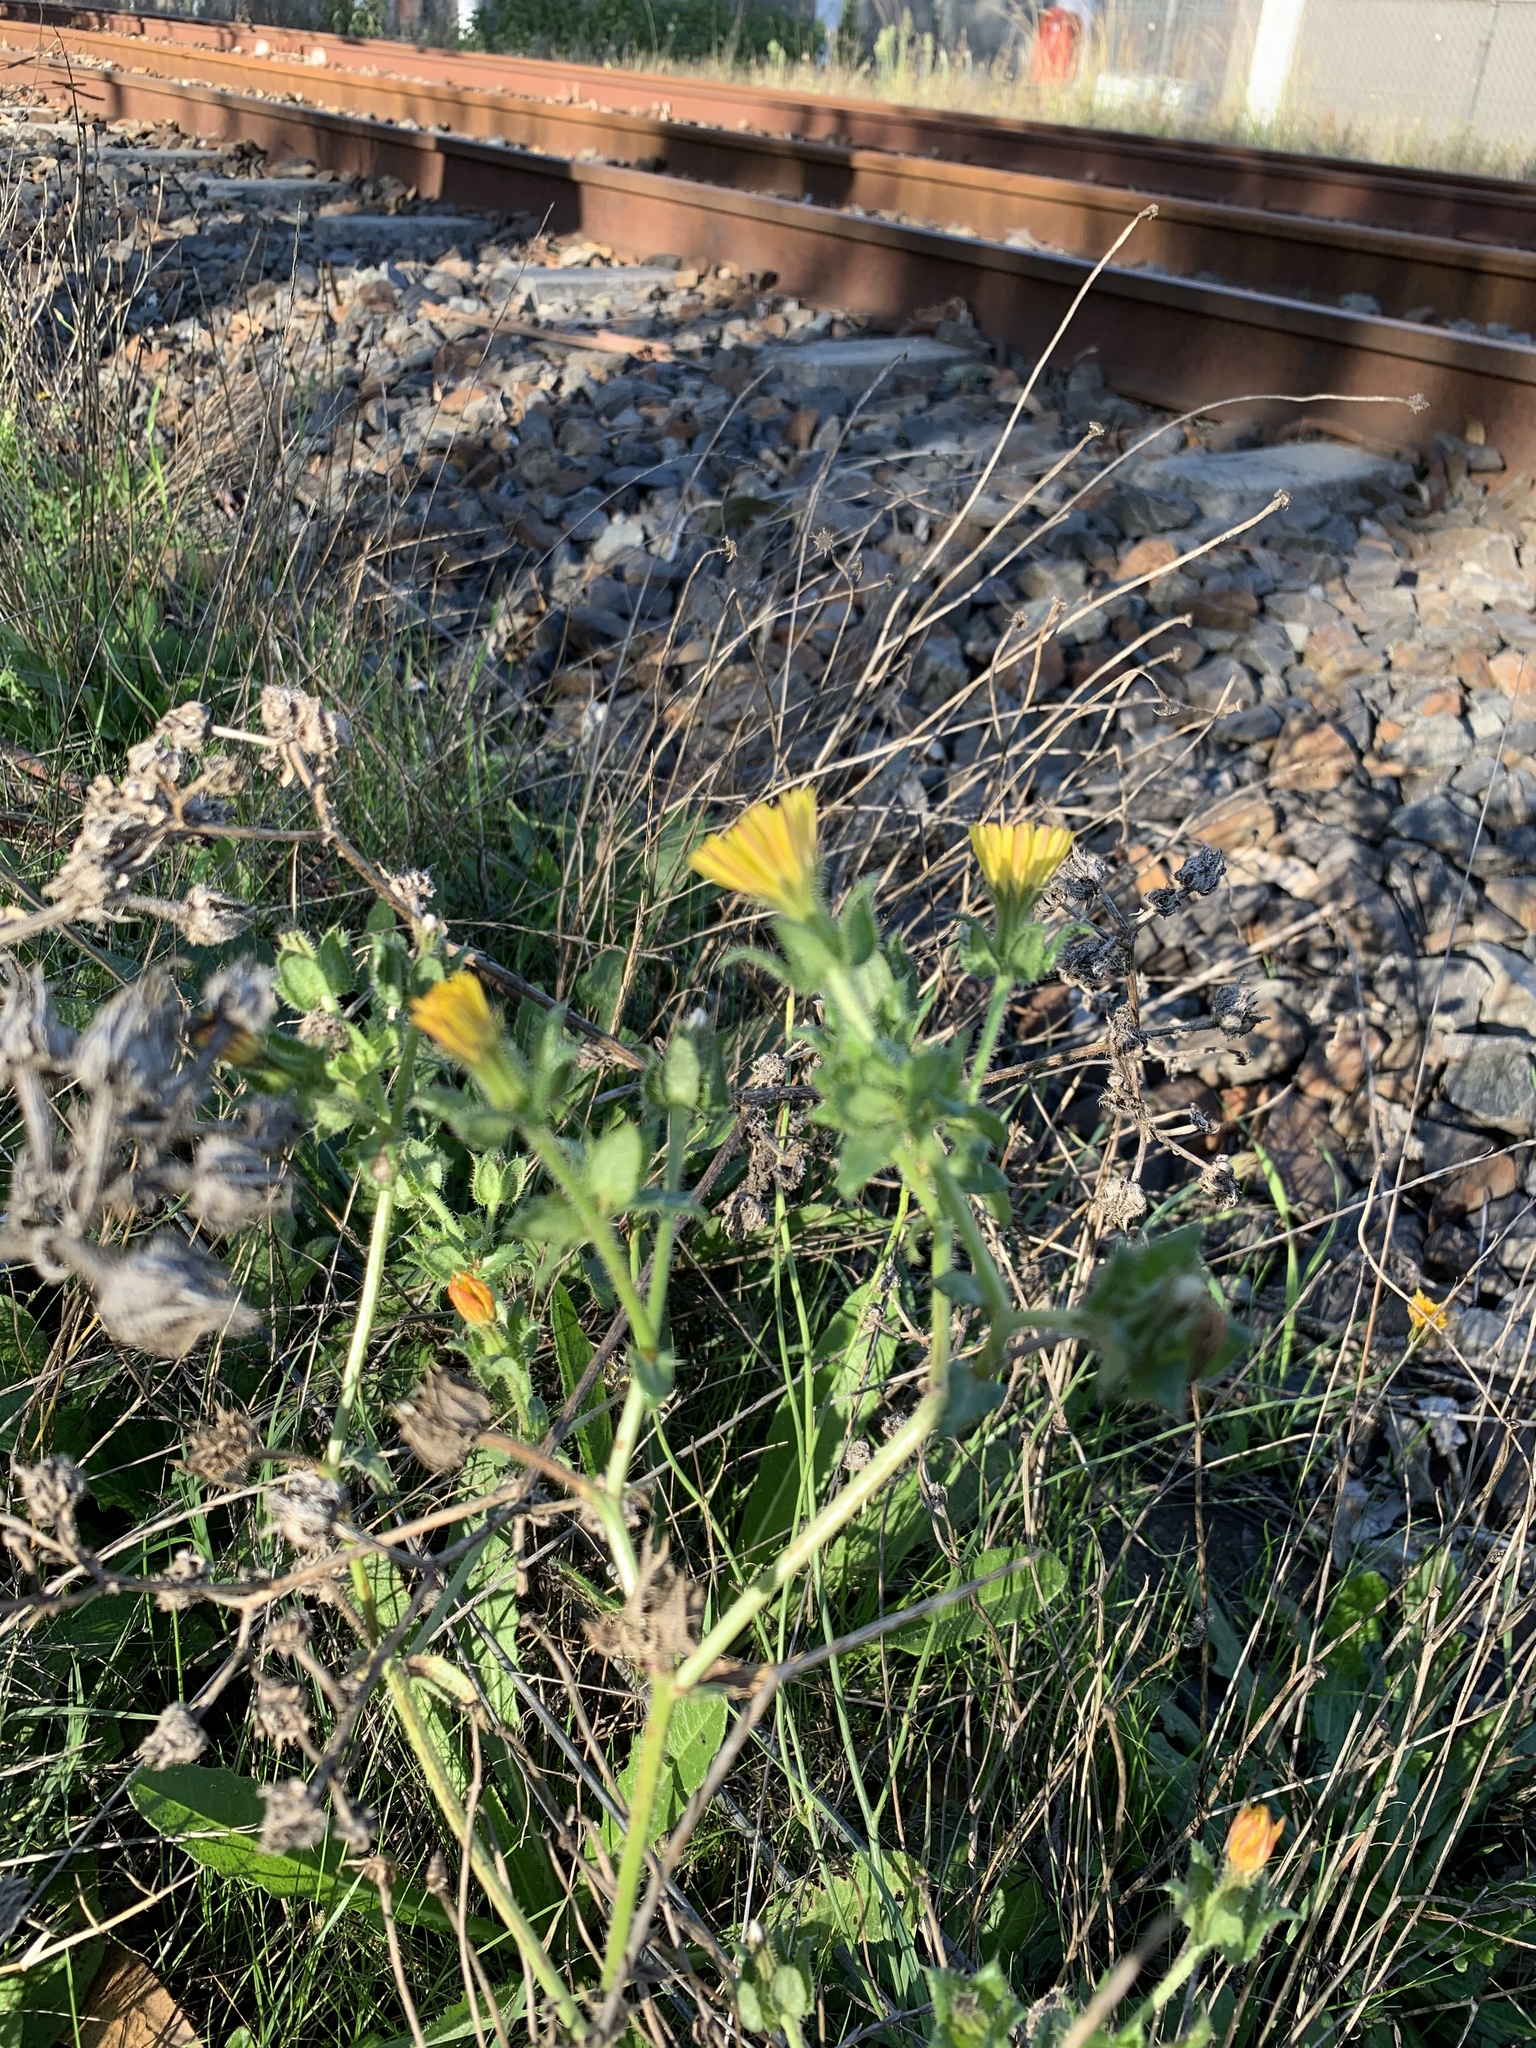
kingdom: Plantae
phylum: Tracheophyta
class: Magnoliopsida
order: Asterales
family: Asteraceae
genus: Helminthotheca
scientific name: Helminthotheca echioides
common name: Ox-tongue
